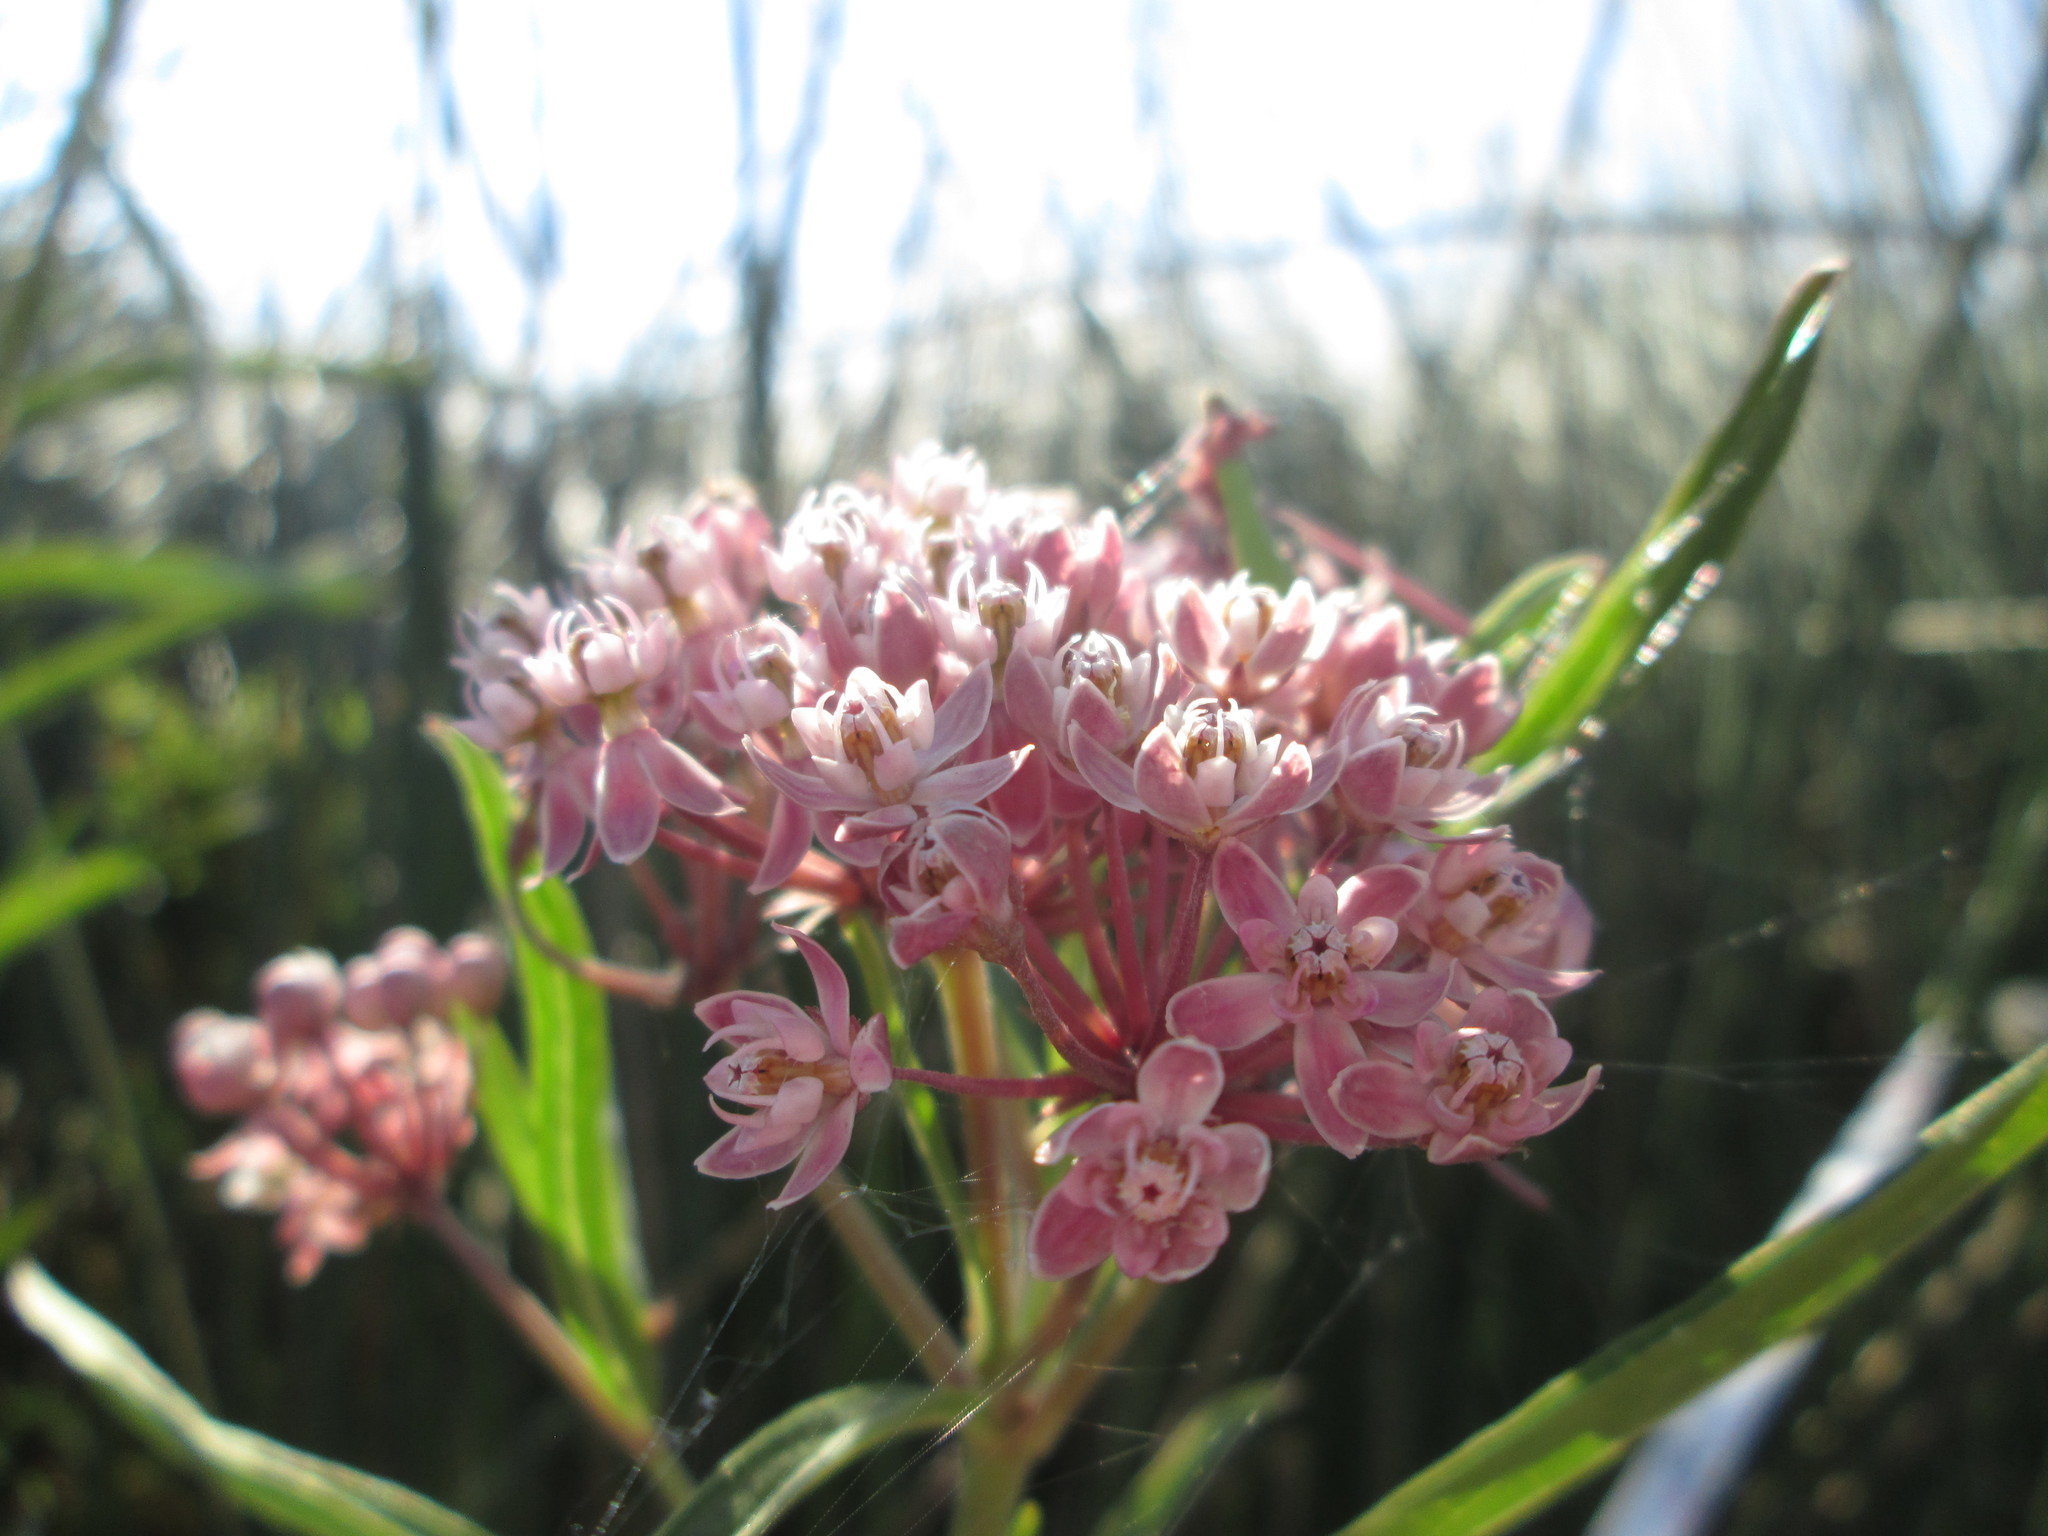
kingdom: Plantae
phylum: Tracheophyta
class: Magnoliopsida
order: Gentianales
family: Apocynaceae
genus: Asclepias
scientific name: Asclepias incarnata
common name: Swamp milkweed
